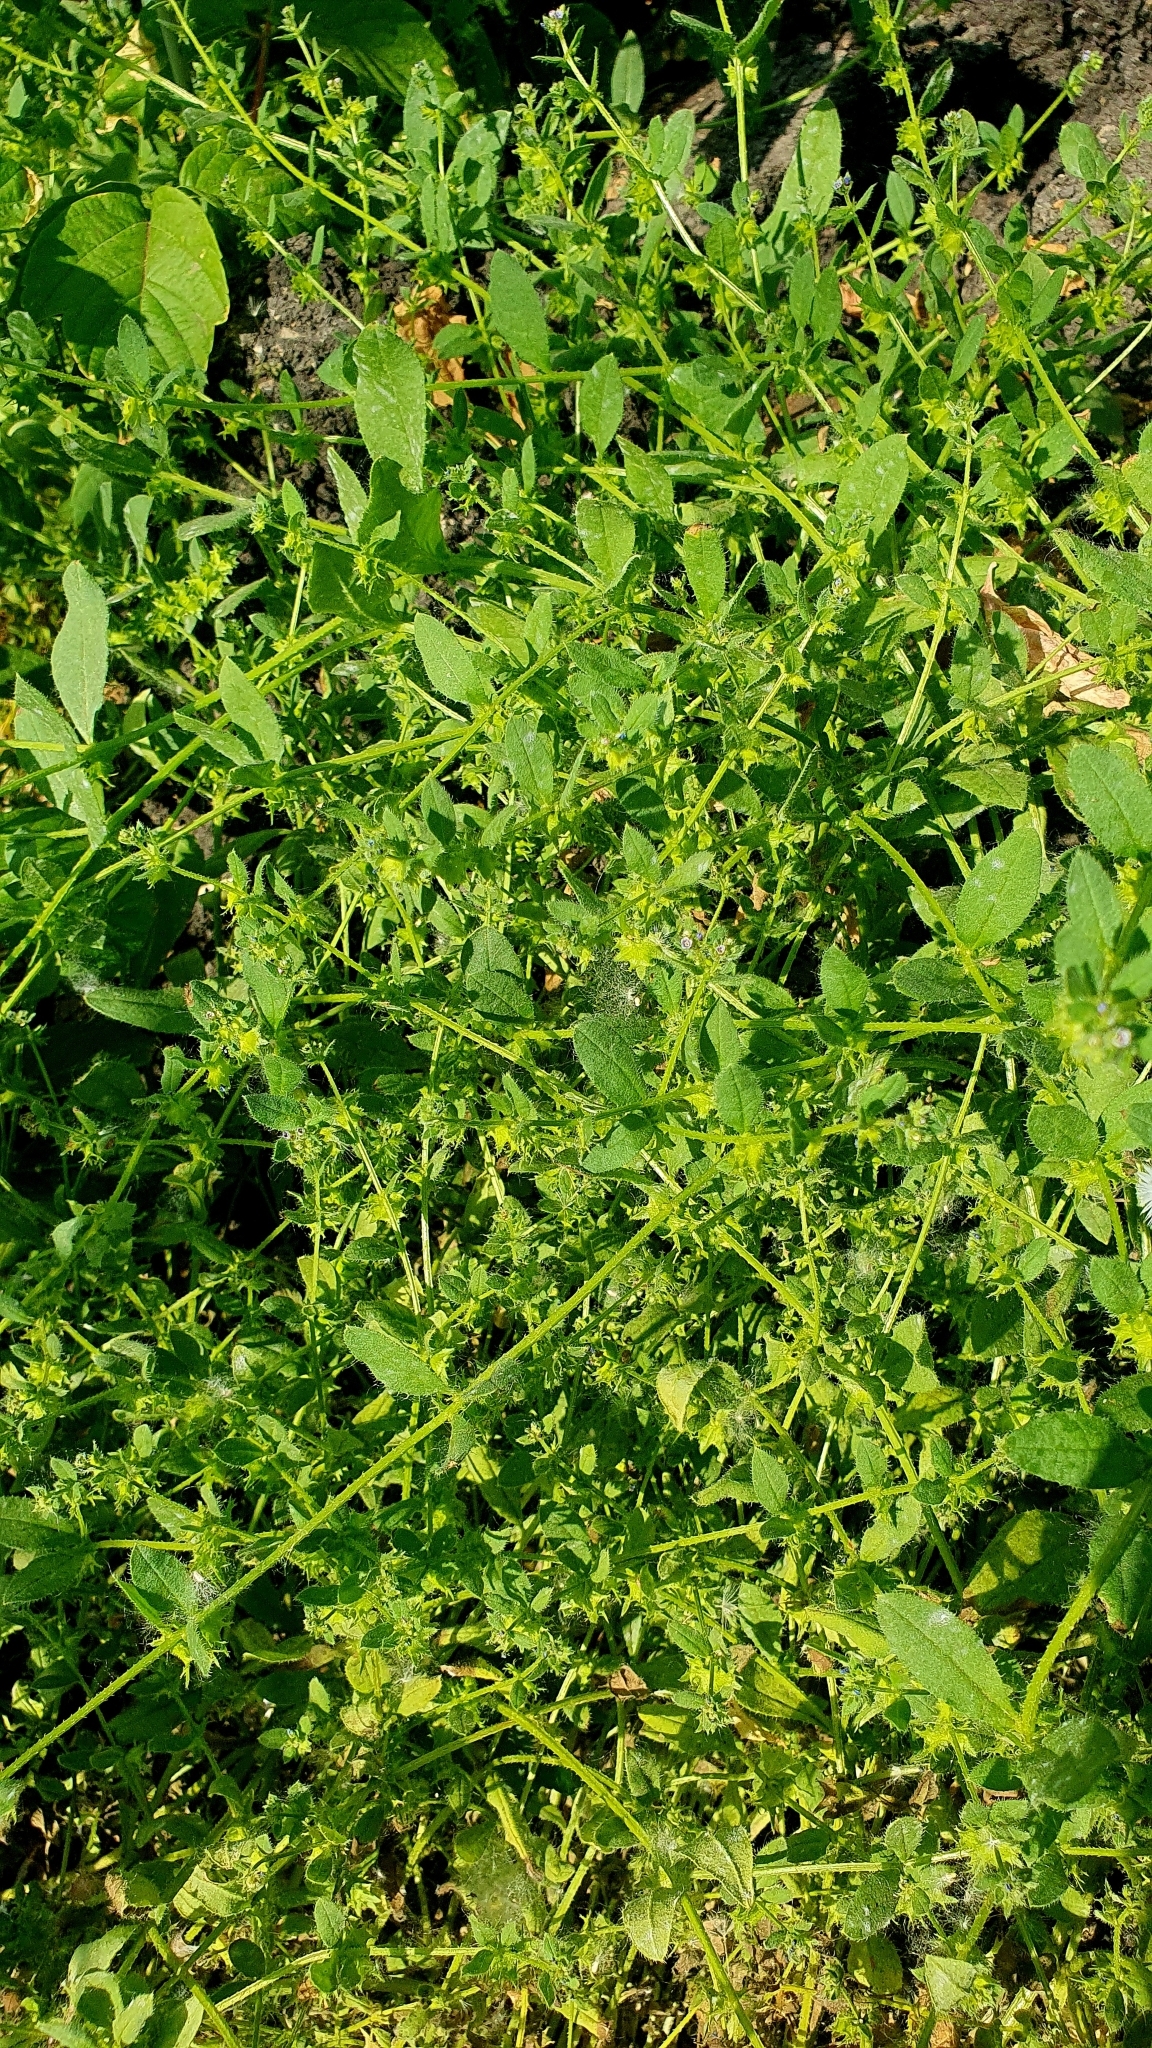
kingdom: Plantae
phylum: Tracheophyta
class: Magnoliopsida
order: Boraginales
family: Boraginaceae
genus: Asperugo
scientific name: Asperugo procumbens
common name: Madwort
